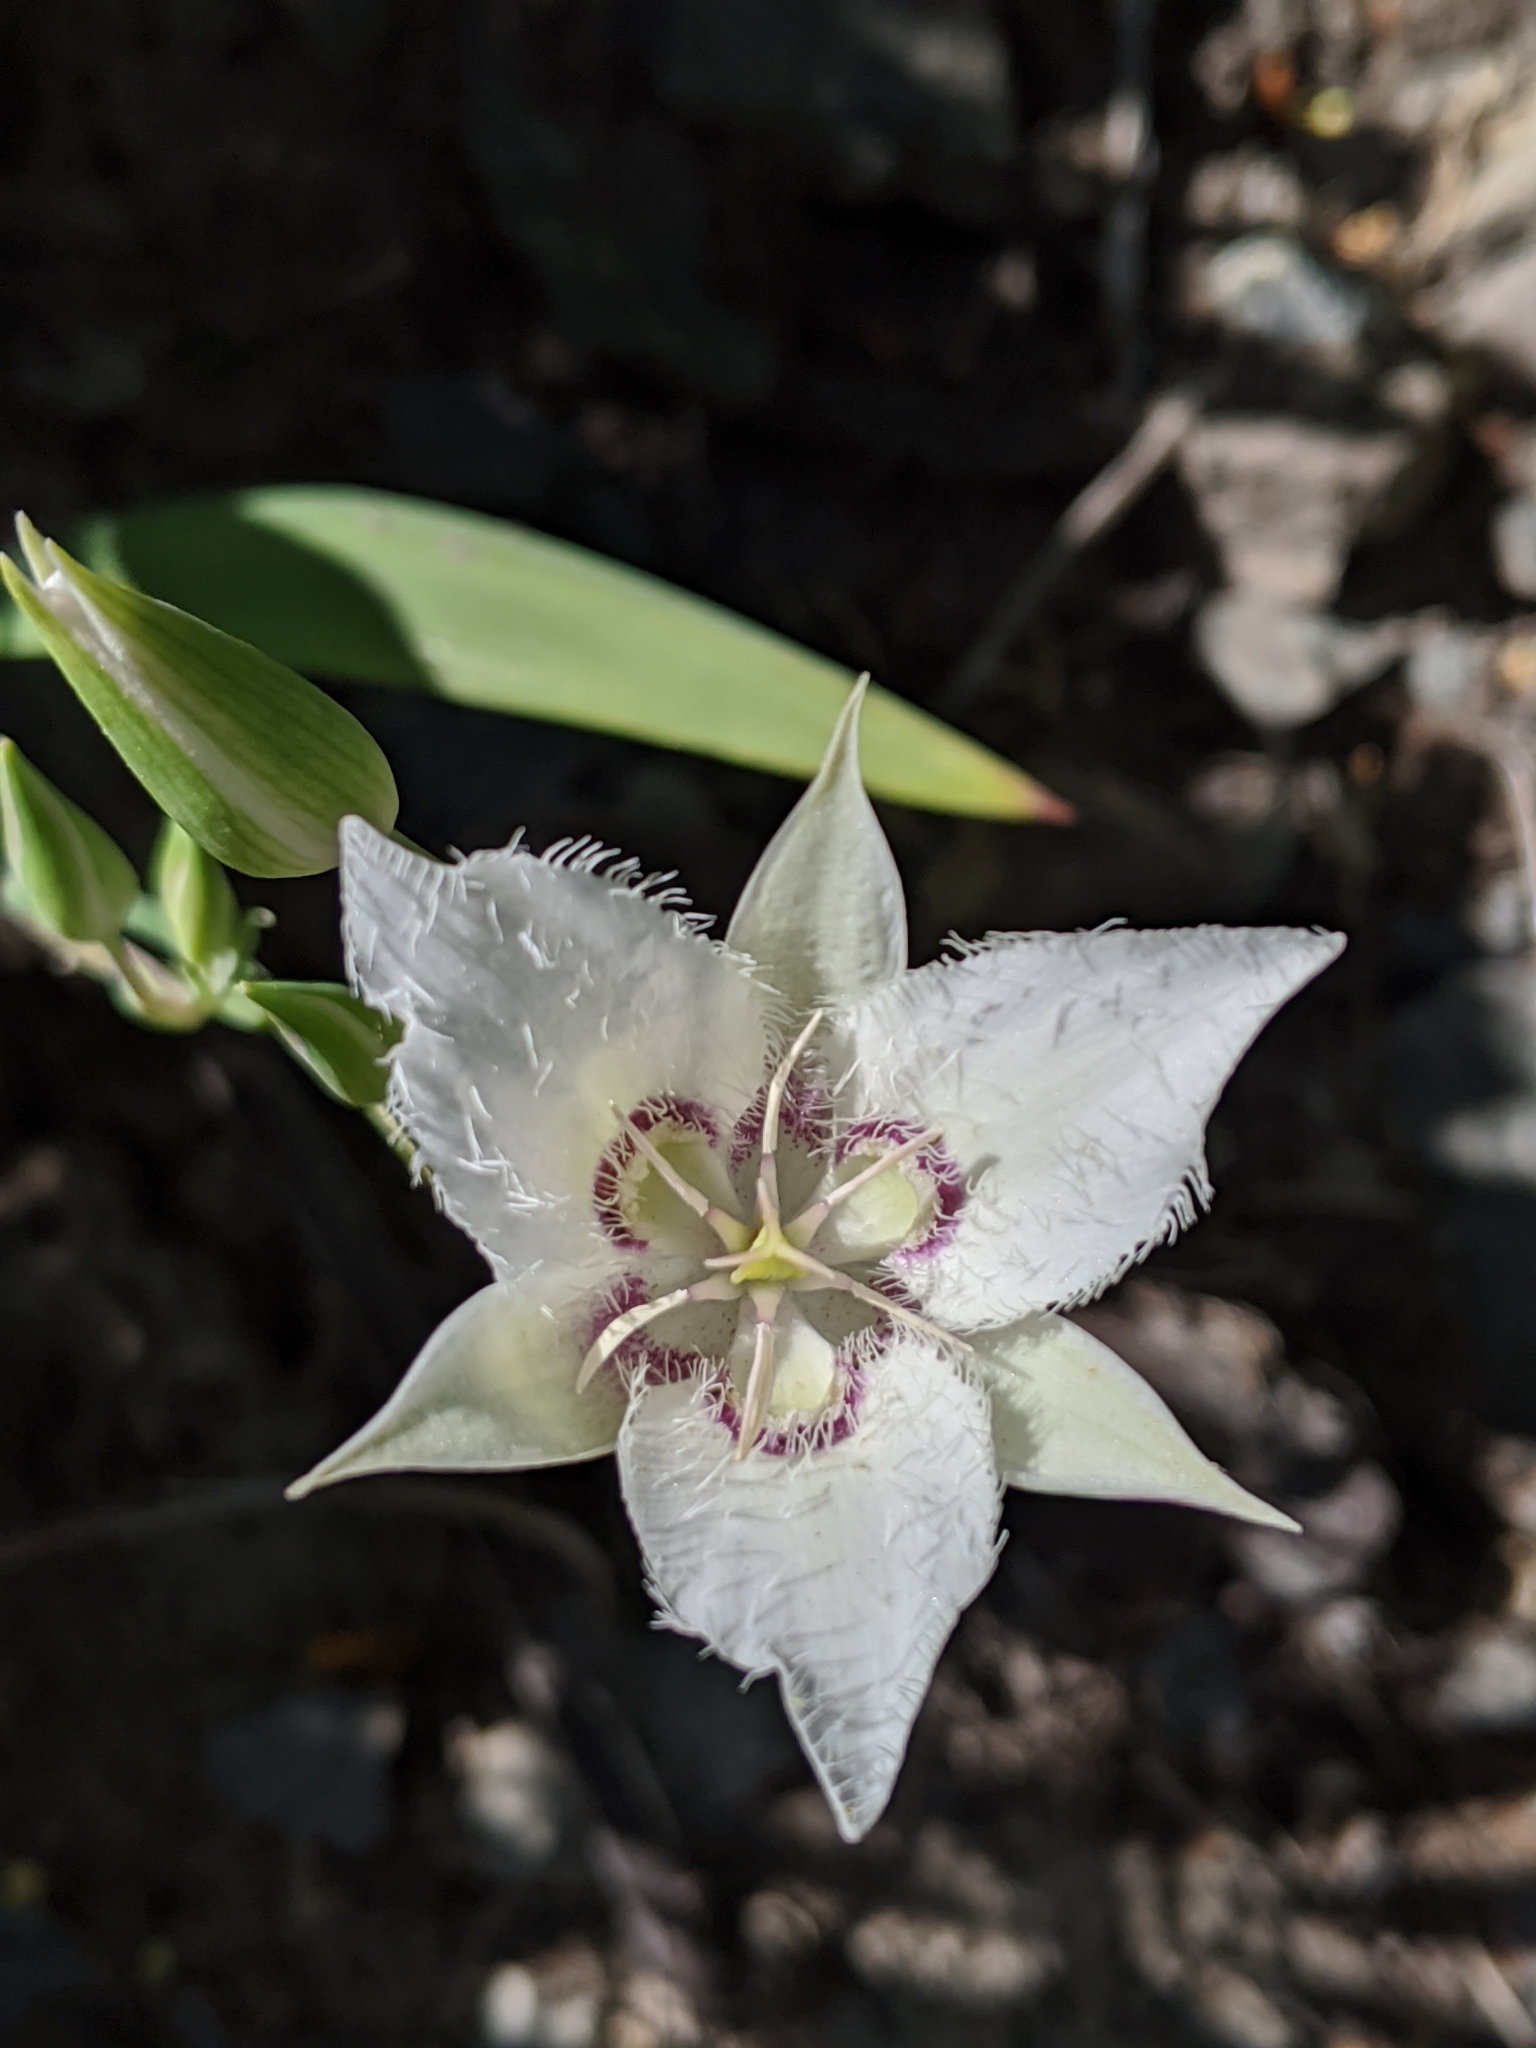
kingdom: Plantae
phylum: Tracheophyta
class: Liliopsida
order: Liliales
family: Liliaceae
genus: Calochortus
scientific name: Calochortus lyallii
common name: Lyall's mariposa lily
